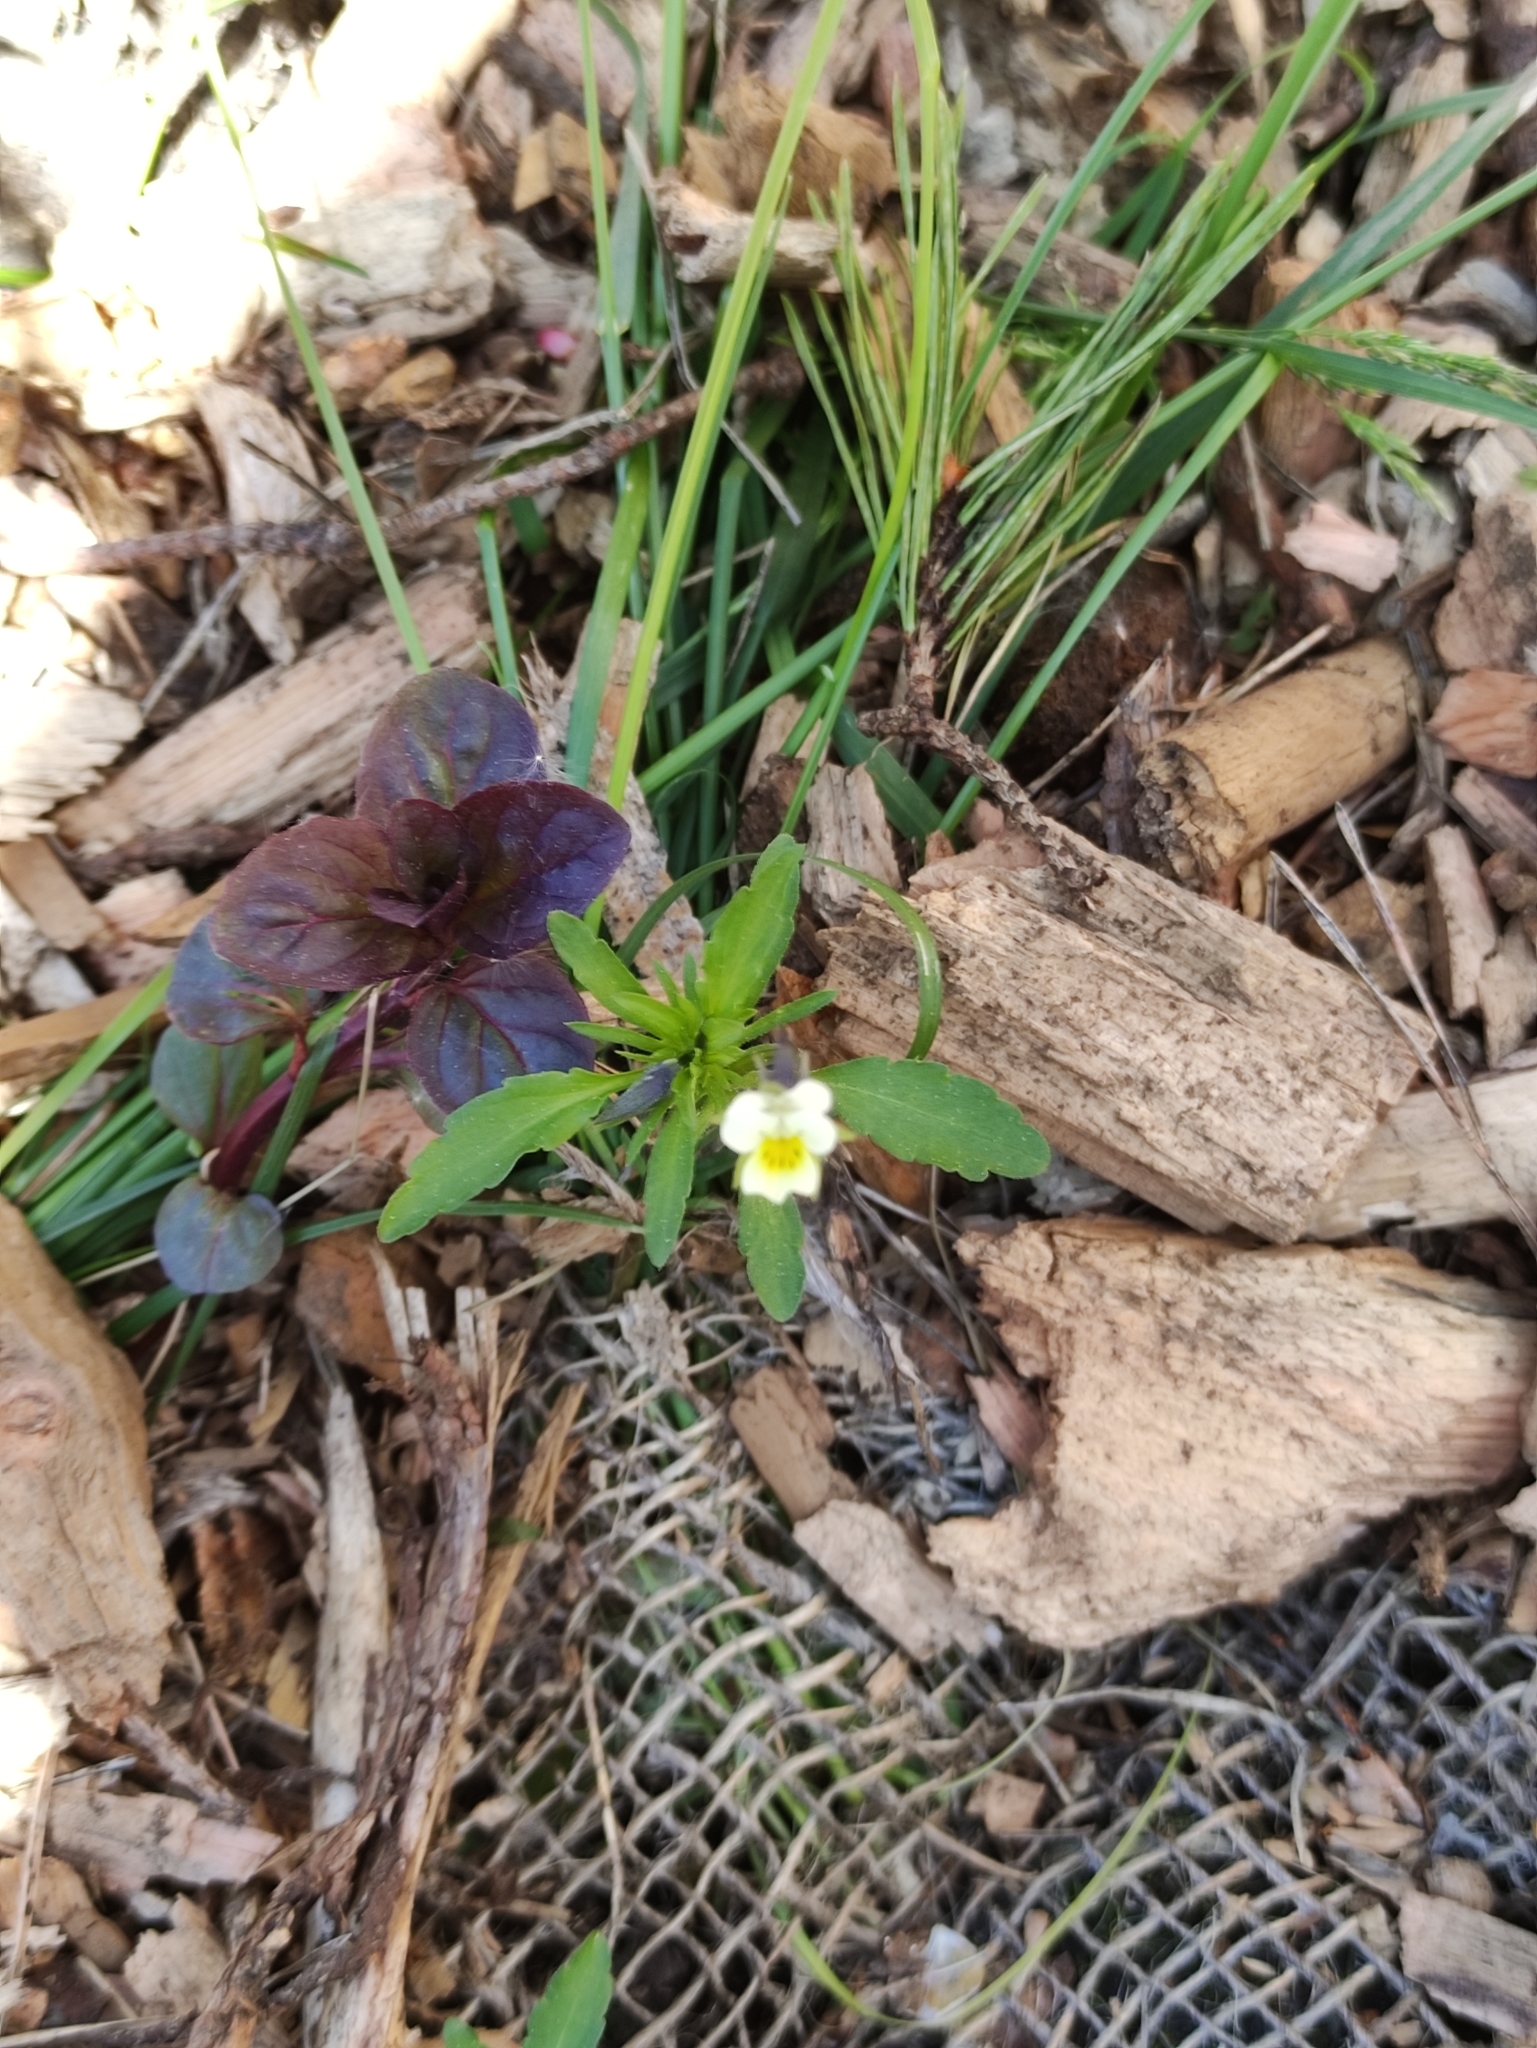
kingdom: Plantae
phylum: Tracheophyta
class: Magnoliopsida
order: Malpighiales
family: Violaceae
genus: Viola
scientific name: Viola arvensis
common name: Field pansy
